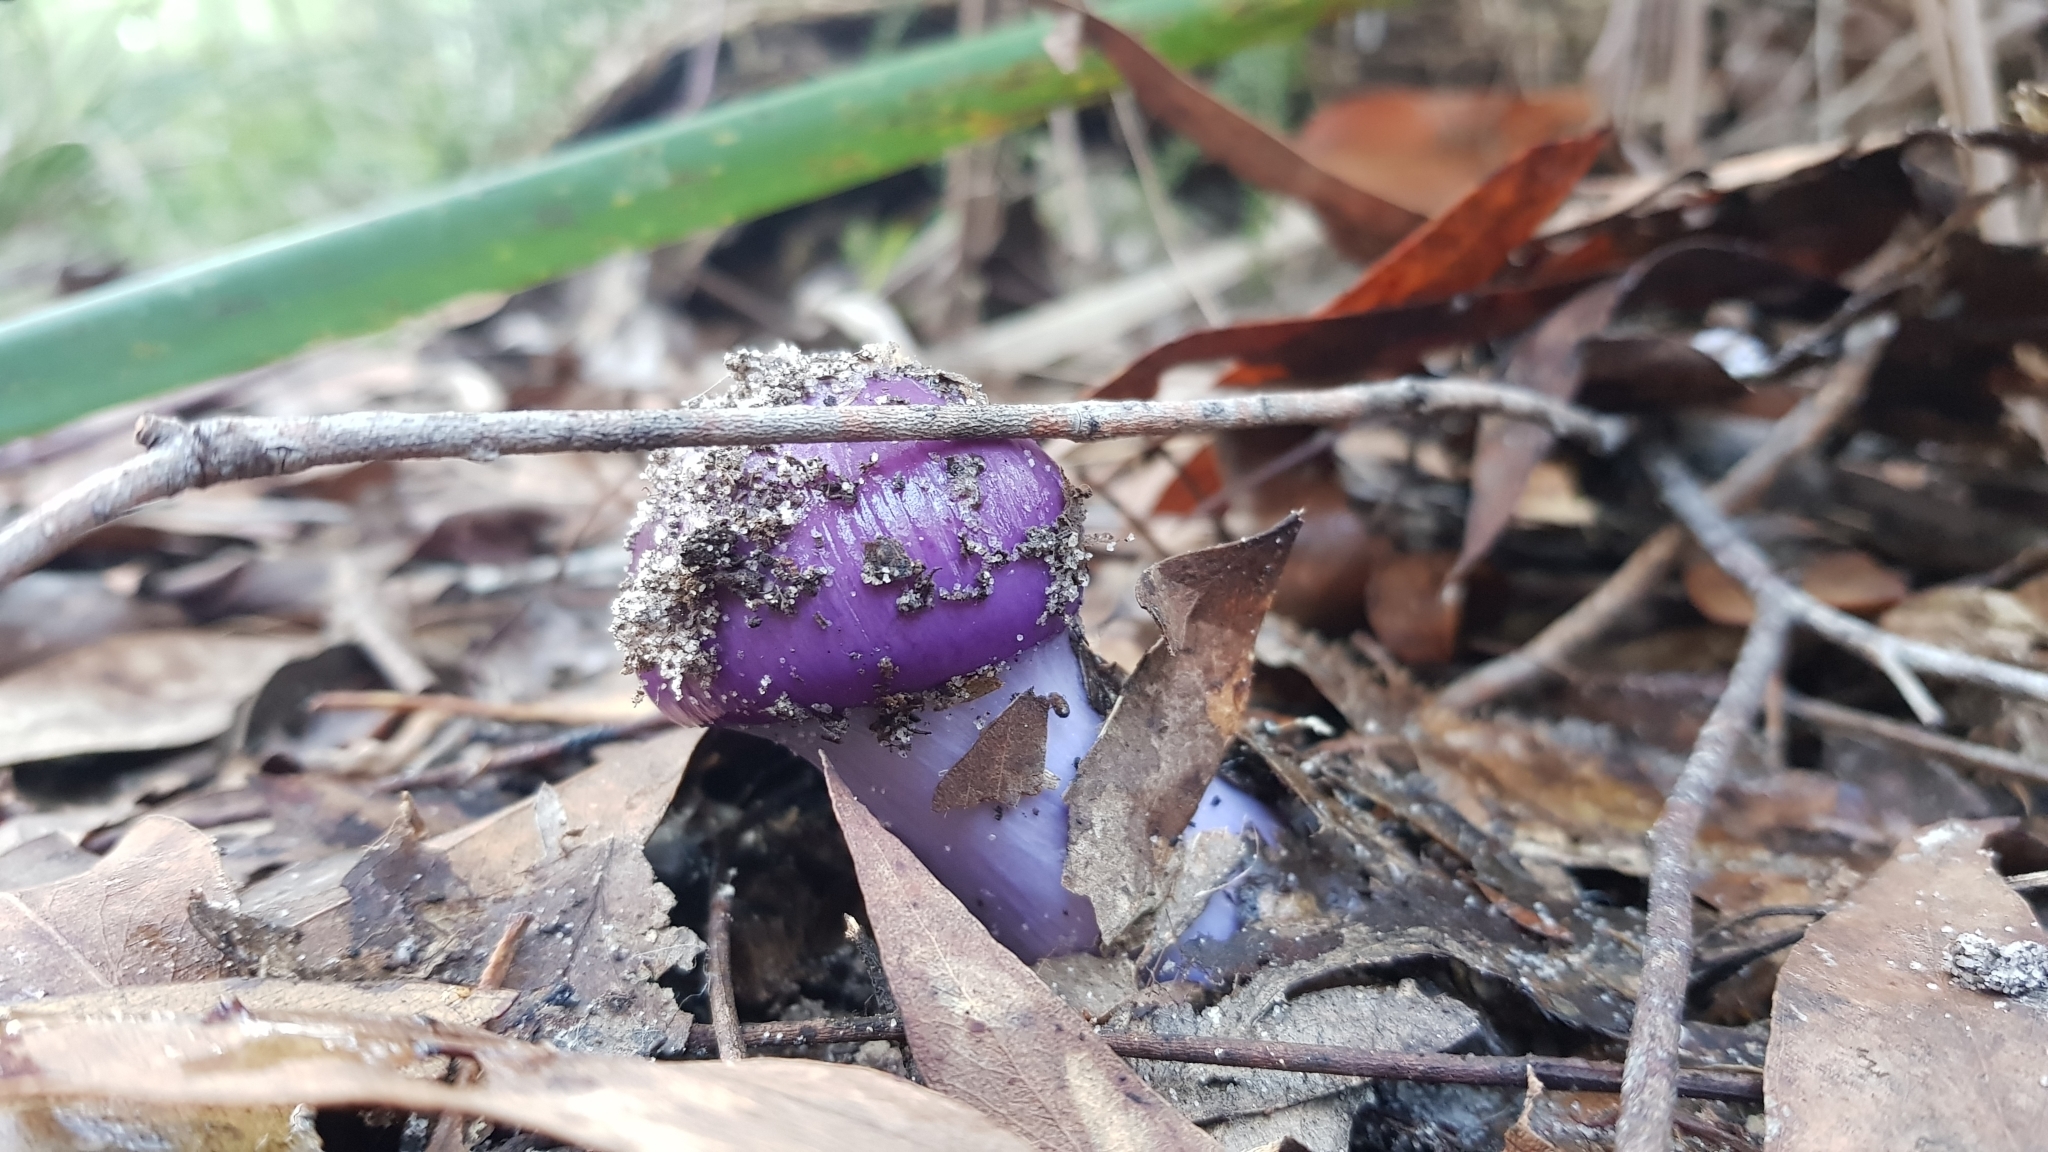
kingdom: Fungi
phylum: Basidiomycota
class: Agaricomycetes
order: Agaricales
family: Cortinariaceae
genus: Cortinarius
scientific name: Cortinarius archeri
